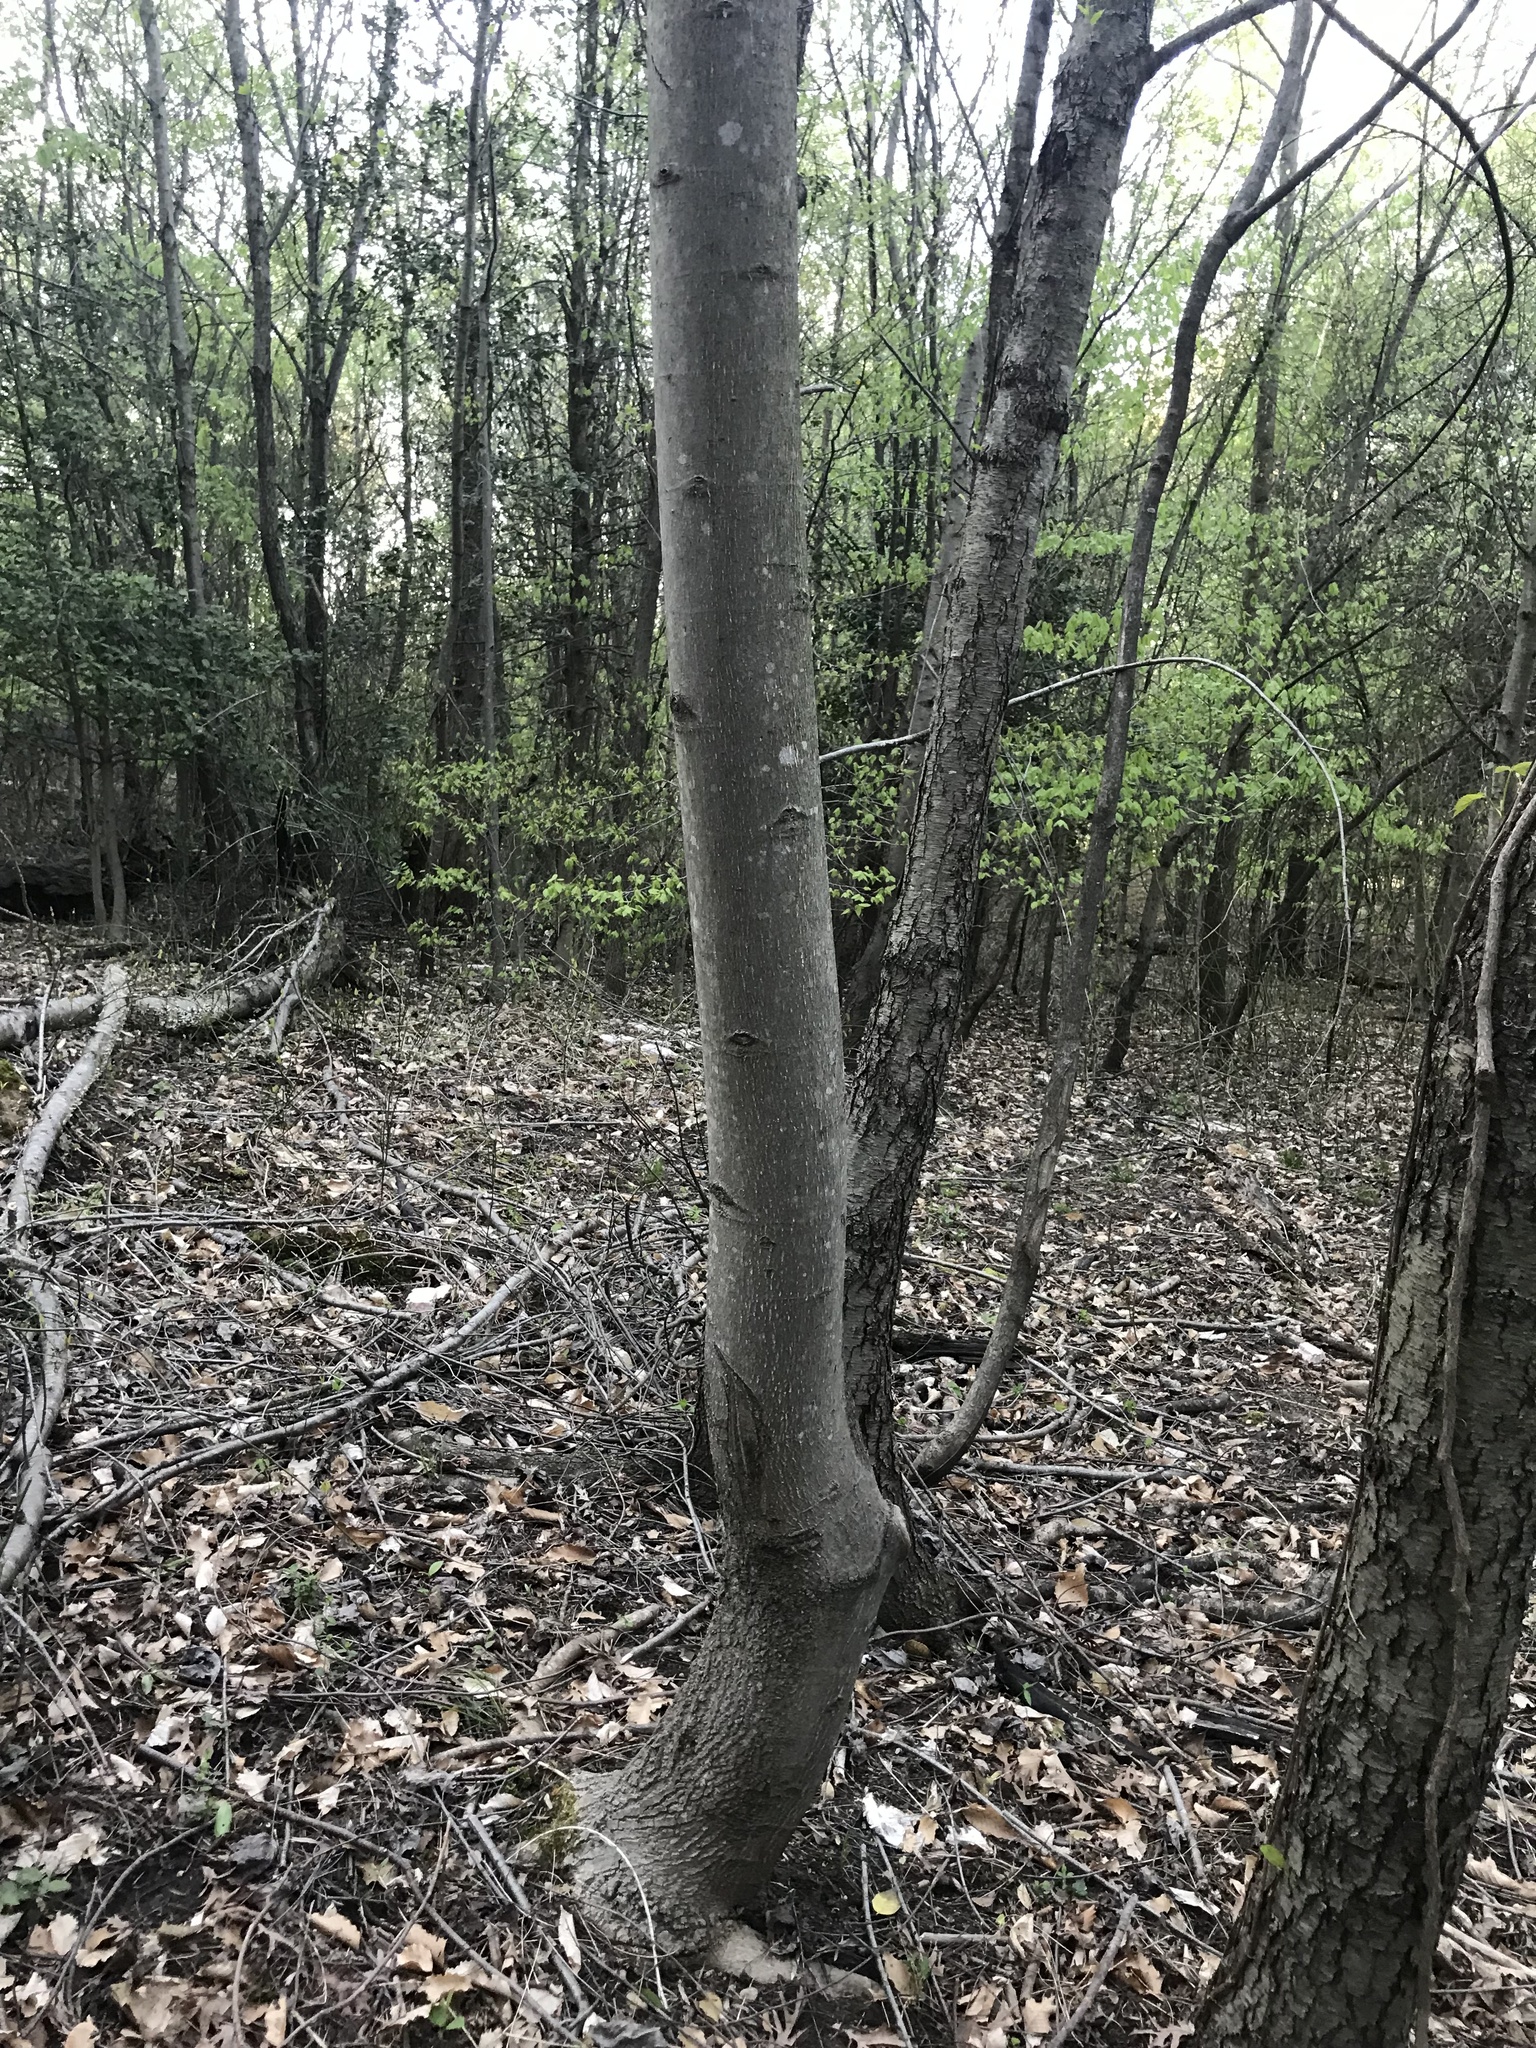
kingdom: Plantae
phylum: Tracheophyta
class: Magnoliopsida
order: Fagales
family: Fagaceae
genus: Fagus
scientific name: Fagus grandifolia
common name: American beech
